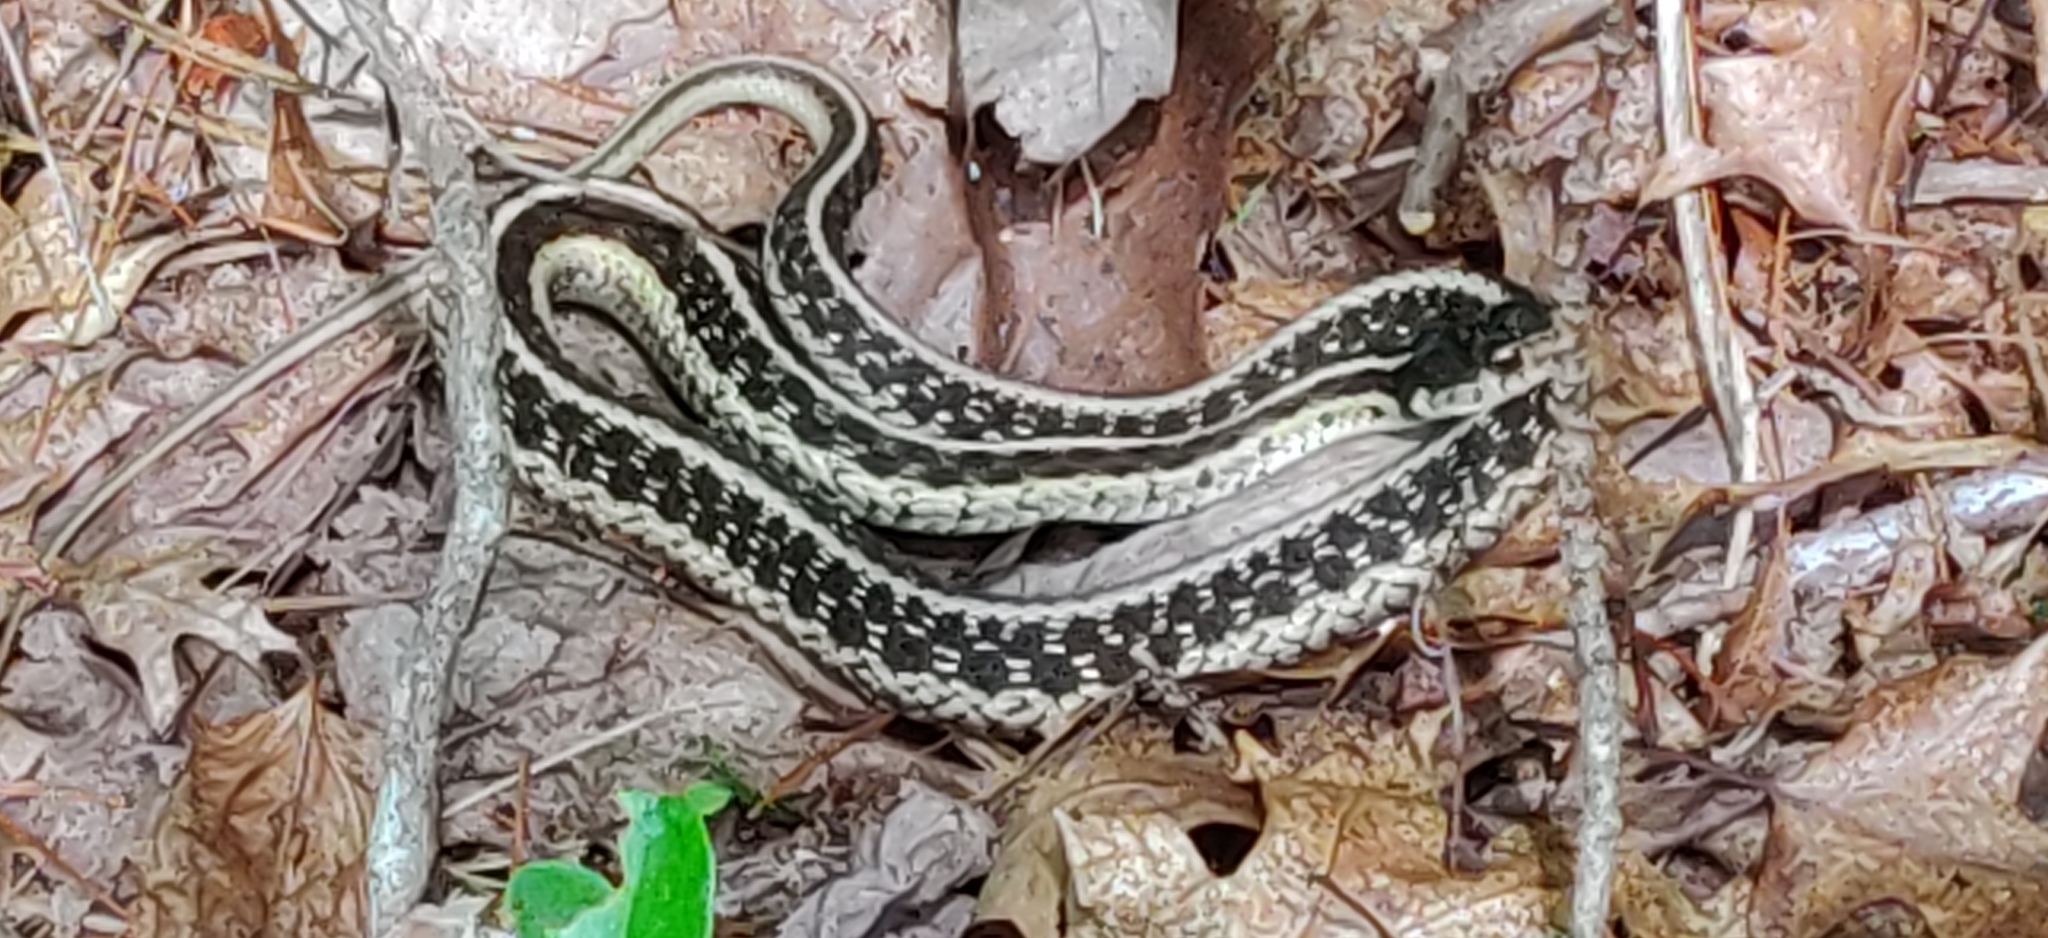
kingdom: Animalia
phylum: Chordata
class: Squamata
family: Colubridae
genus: Thamnophis
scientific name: Thamnophis sirtalis
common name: Common garter snake
